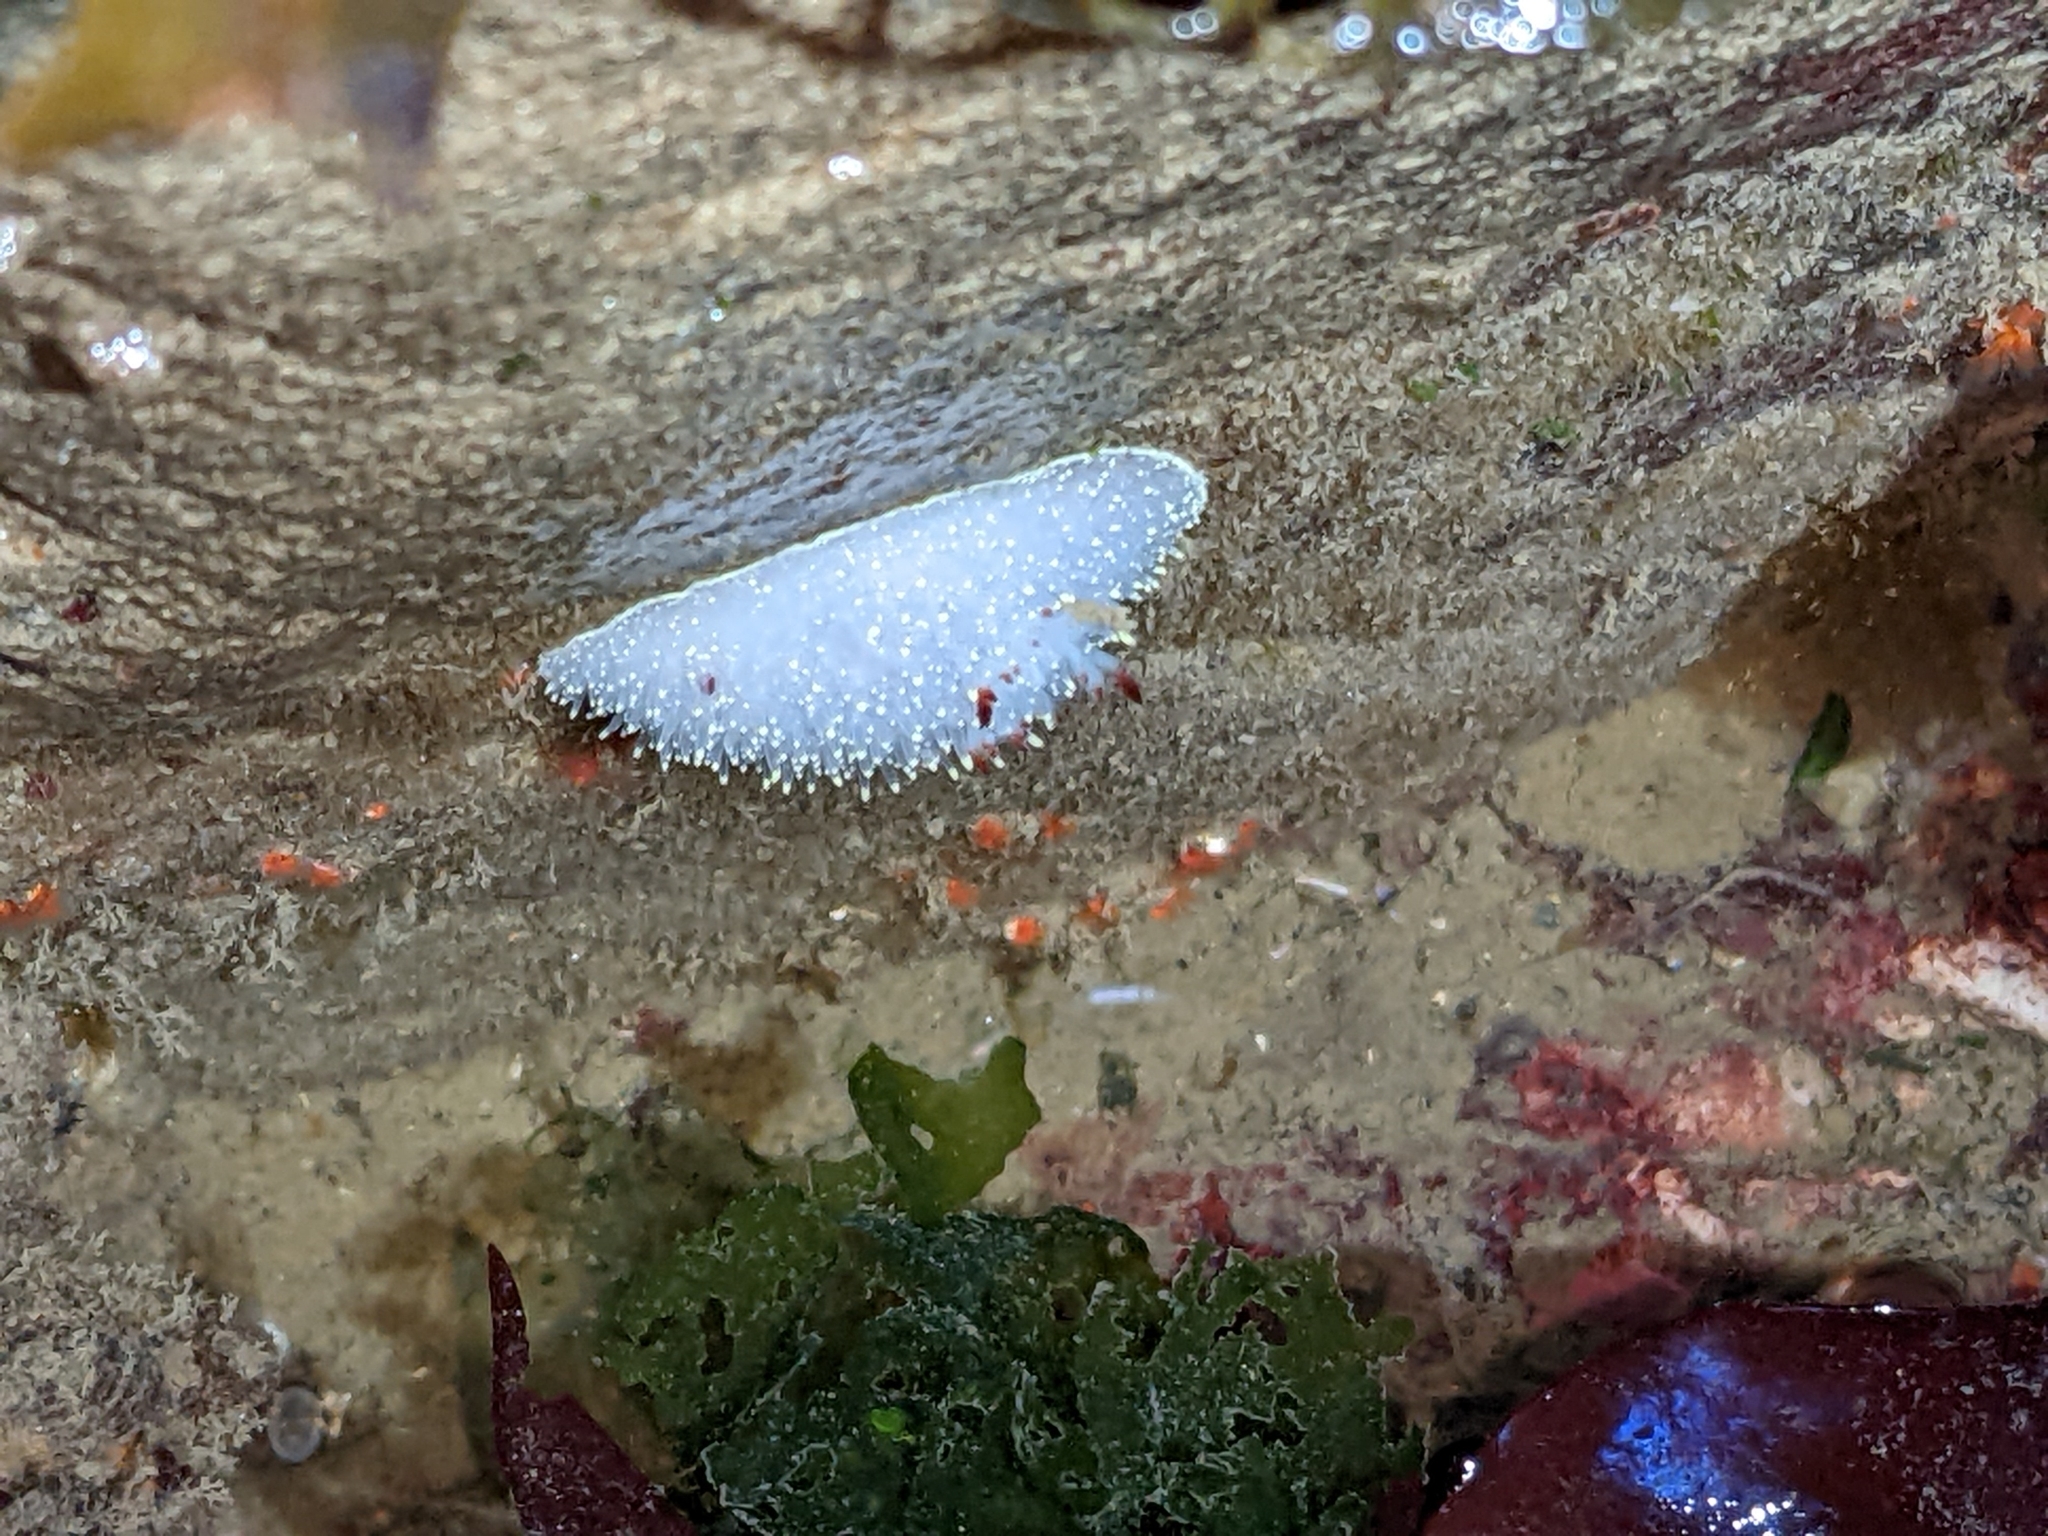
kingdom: Animalia
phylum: Mollusca
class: Gastropoda
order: Nudibranchia
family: Onchidorididae
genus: Acanthodoris
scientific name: Acanthodoris nanaimoensis
